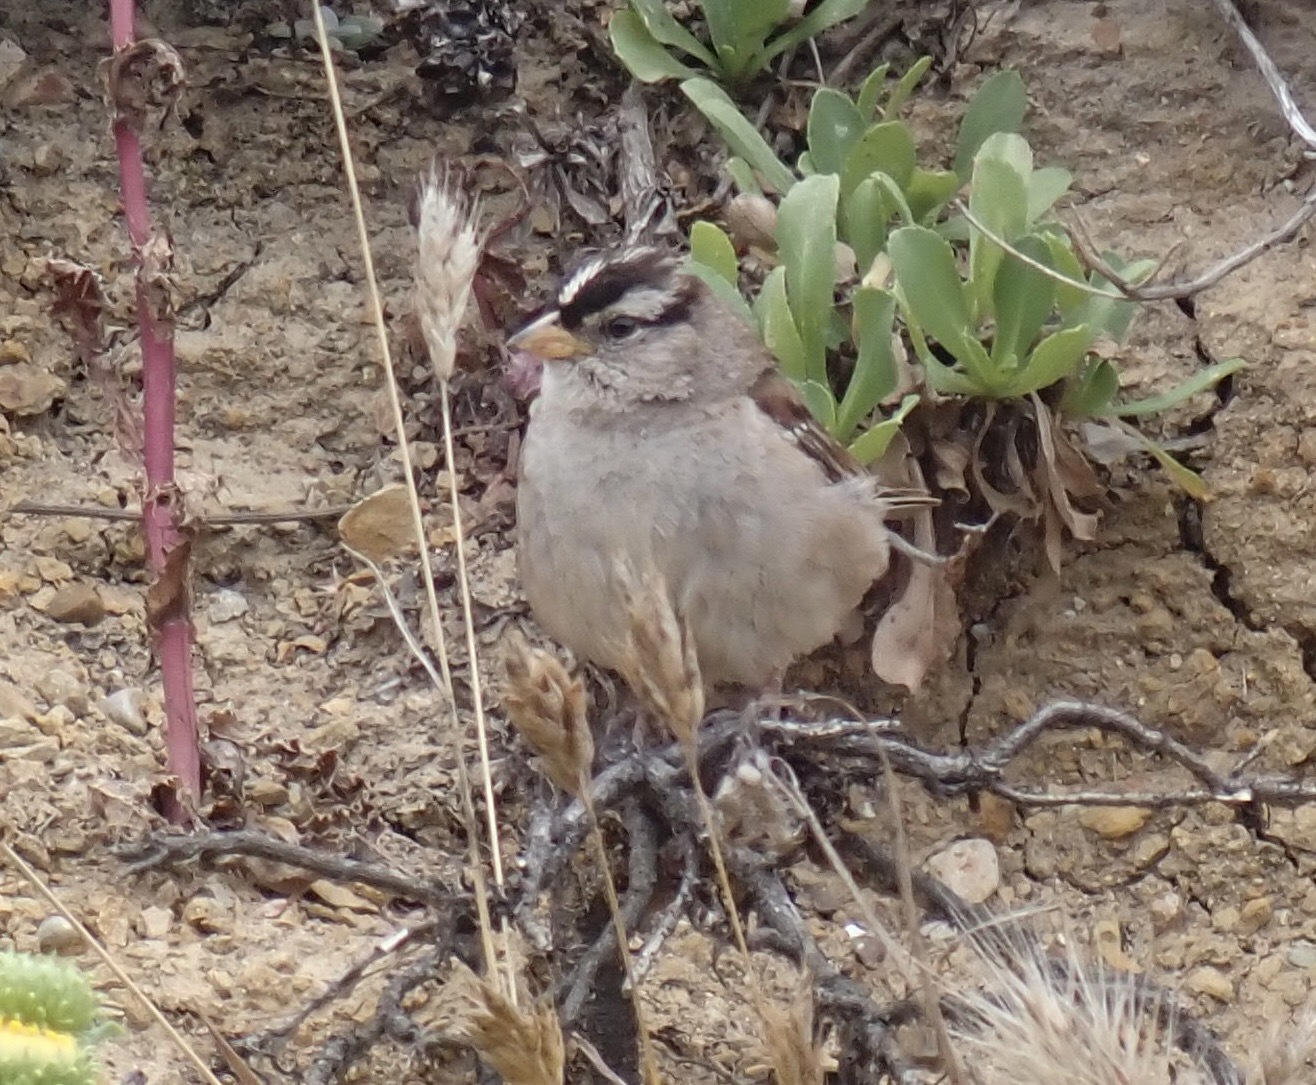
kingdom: Animalia
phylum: Chordata
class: Aves
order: Passeriformes
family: Passerellidae
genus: Zonotrichia
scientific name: Zonotrichia leucophrys
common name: White-crowned sparrow
